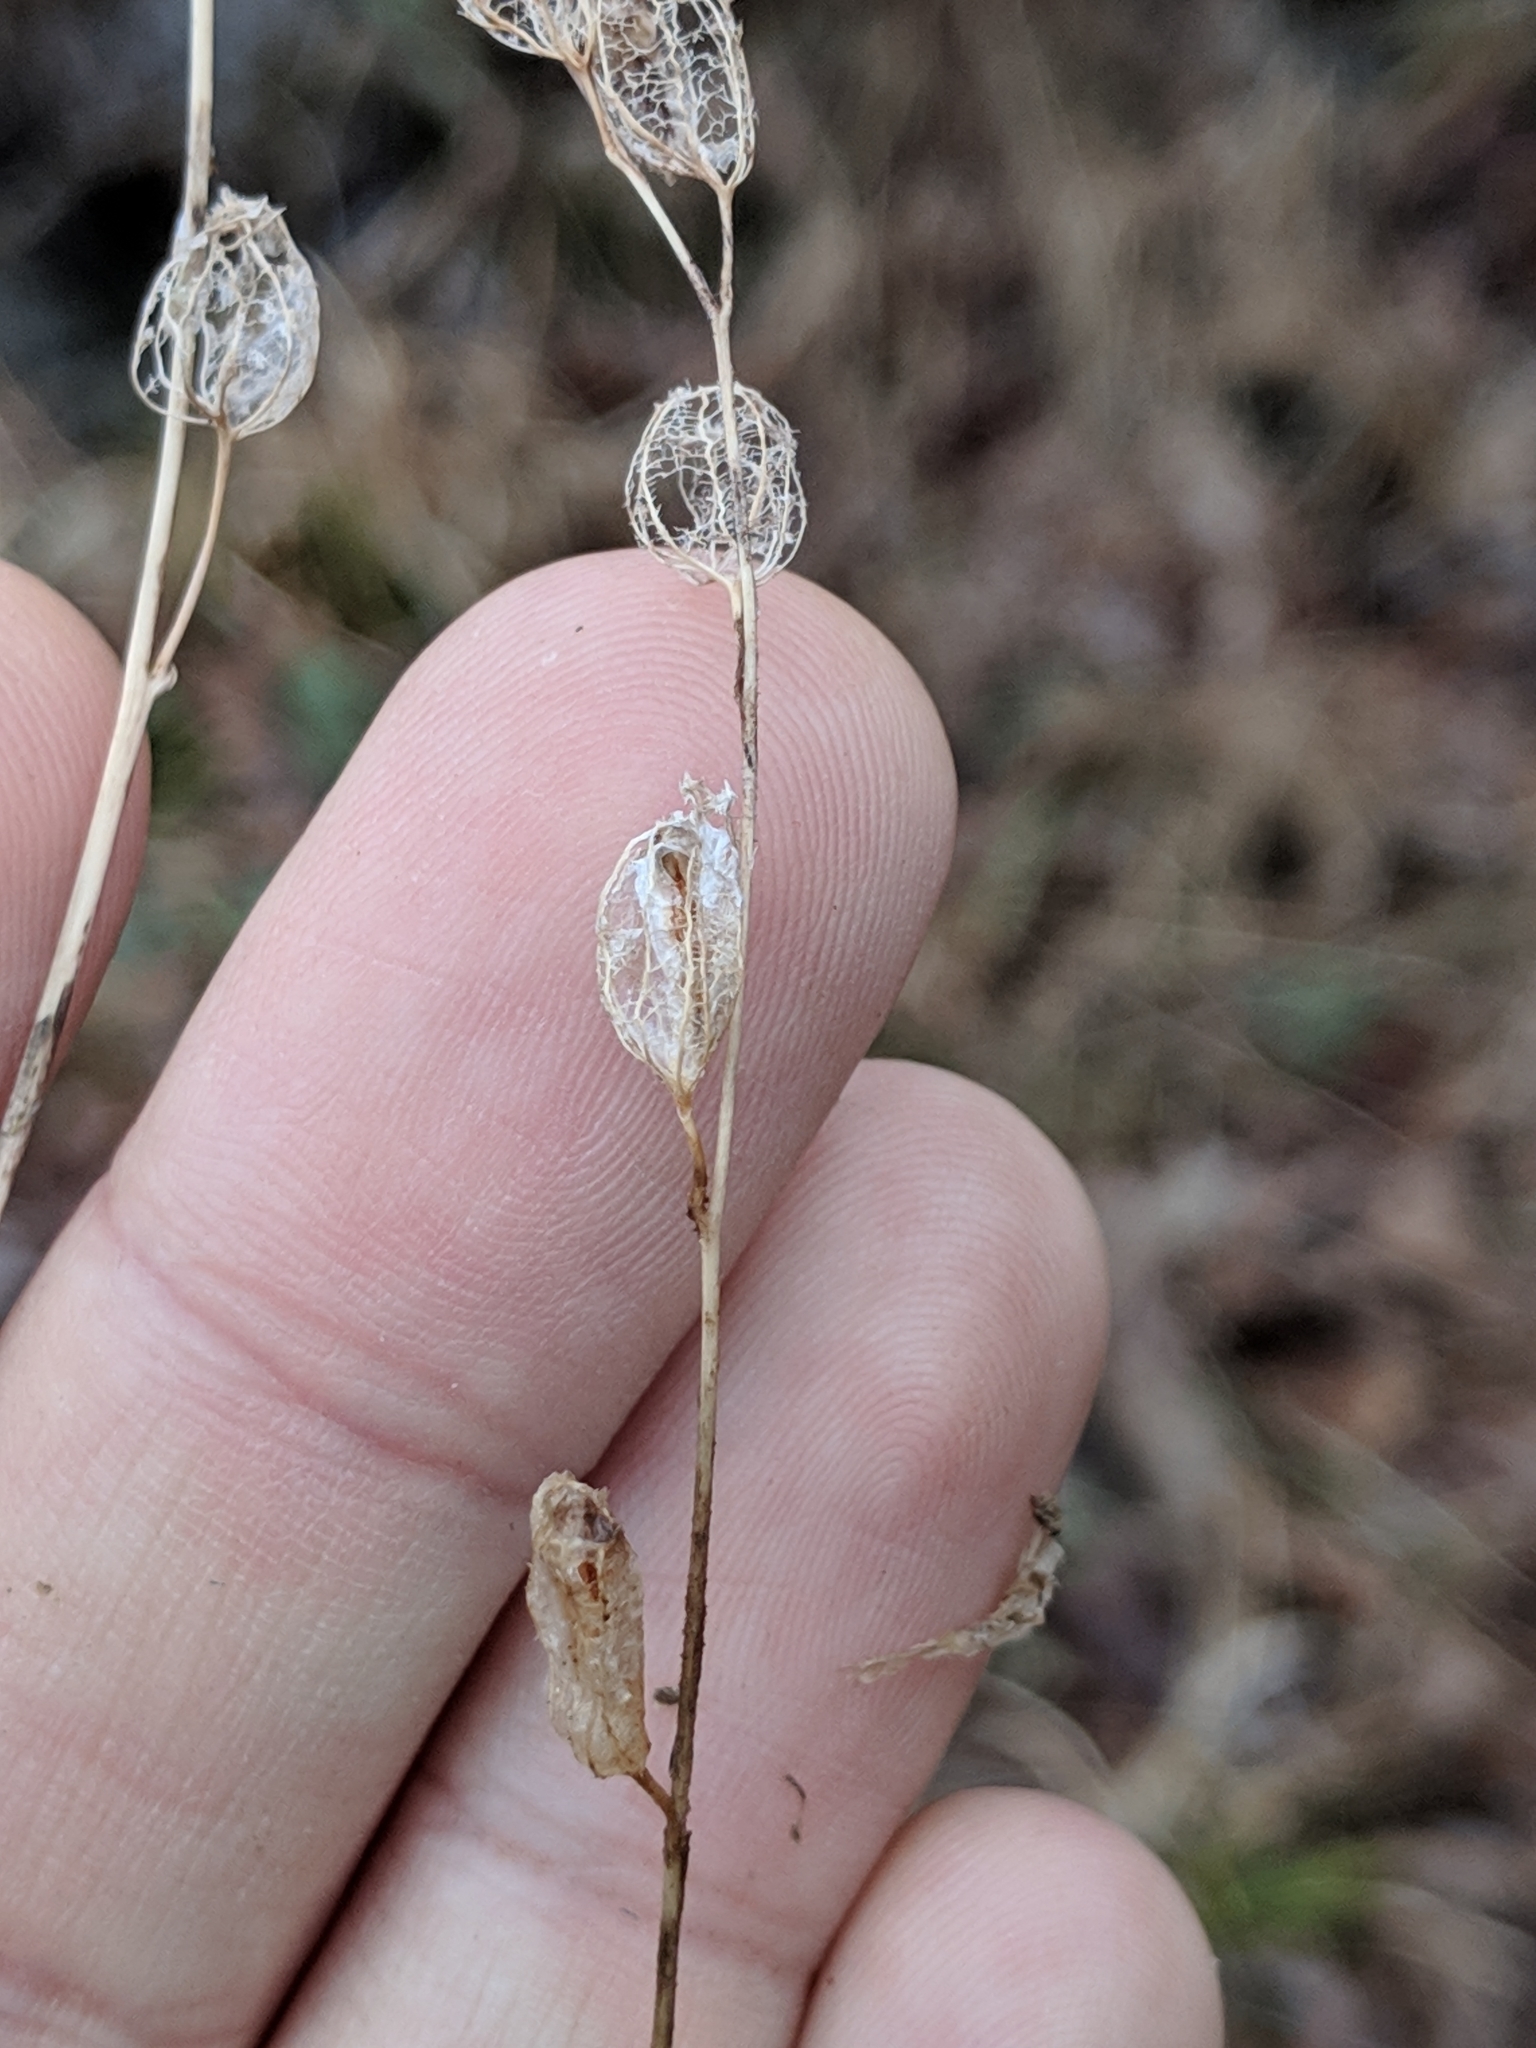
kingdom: Plantae
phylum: Tracheophyta
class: Magnoliopsida
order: Asterales
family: Campanulaceae
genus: Lobelia
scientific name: Lobelia inflata
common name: Indian tobacco
